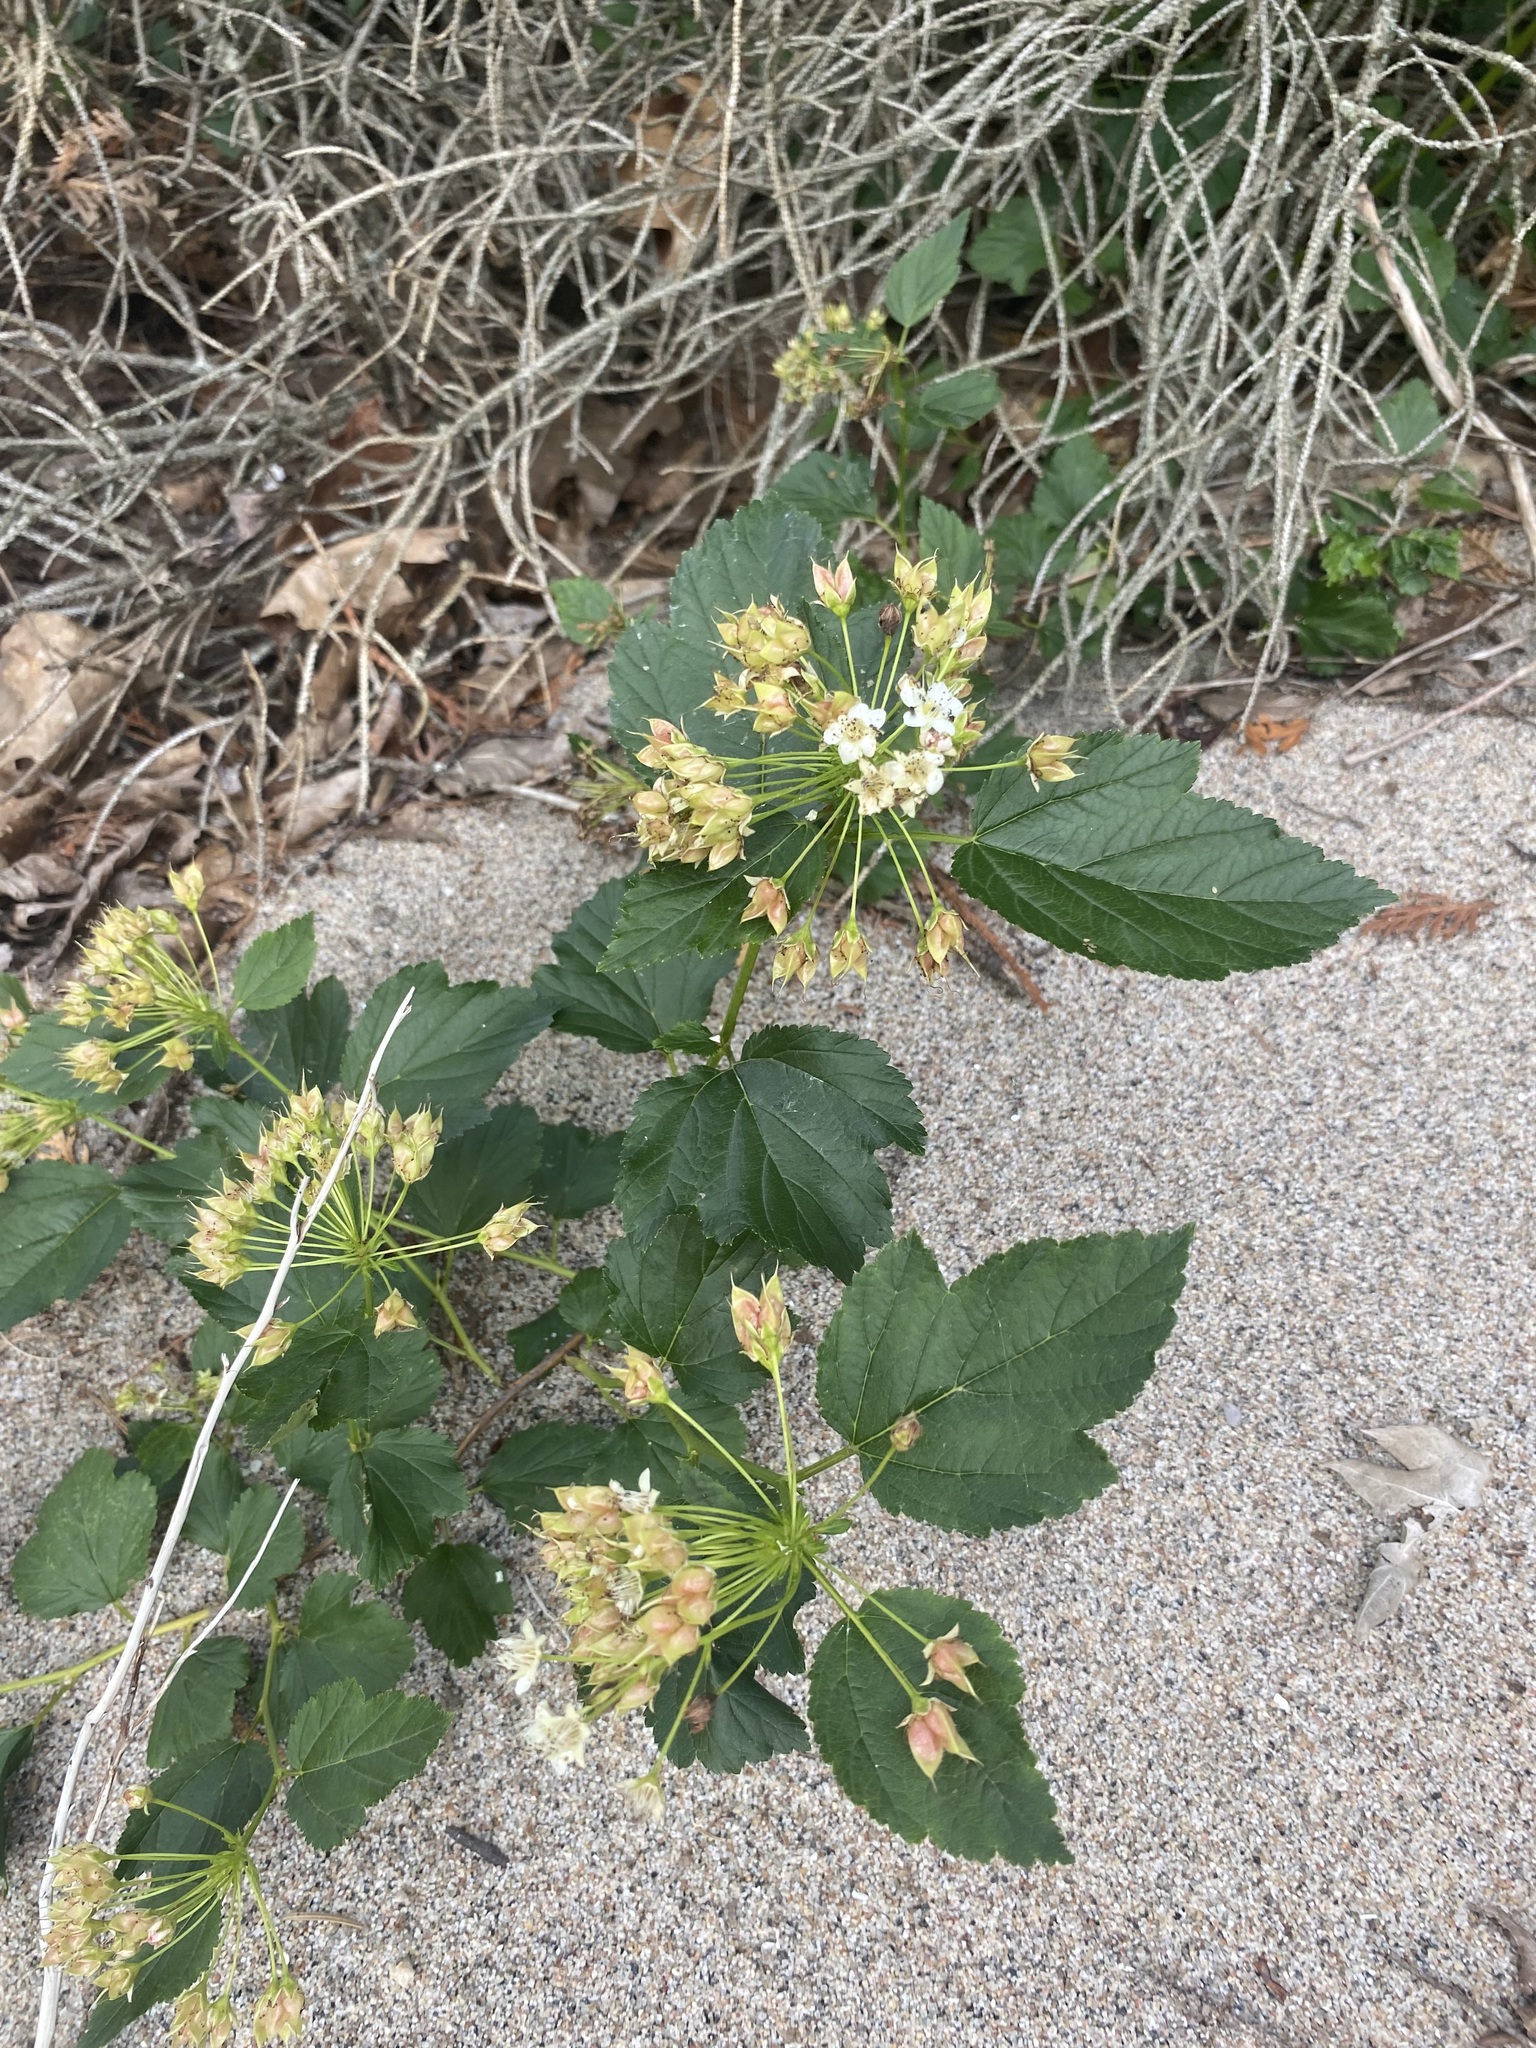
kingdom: Plantae
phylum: Tracheophyta
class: Magnoliopsida
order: Rosales
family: Rosaceae
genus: Physocarpus
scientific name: Physocarpus opulifolius
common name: Ninebark
